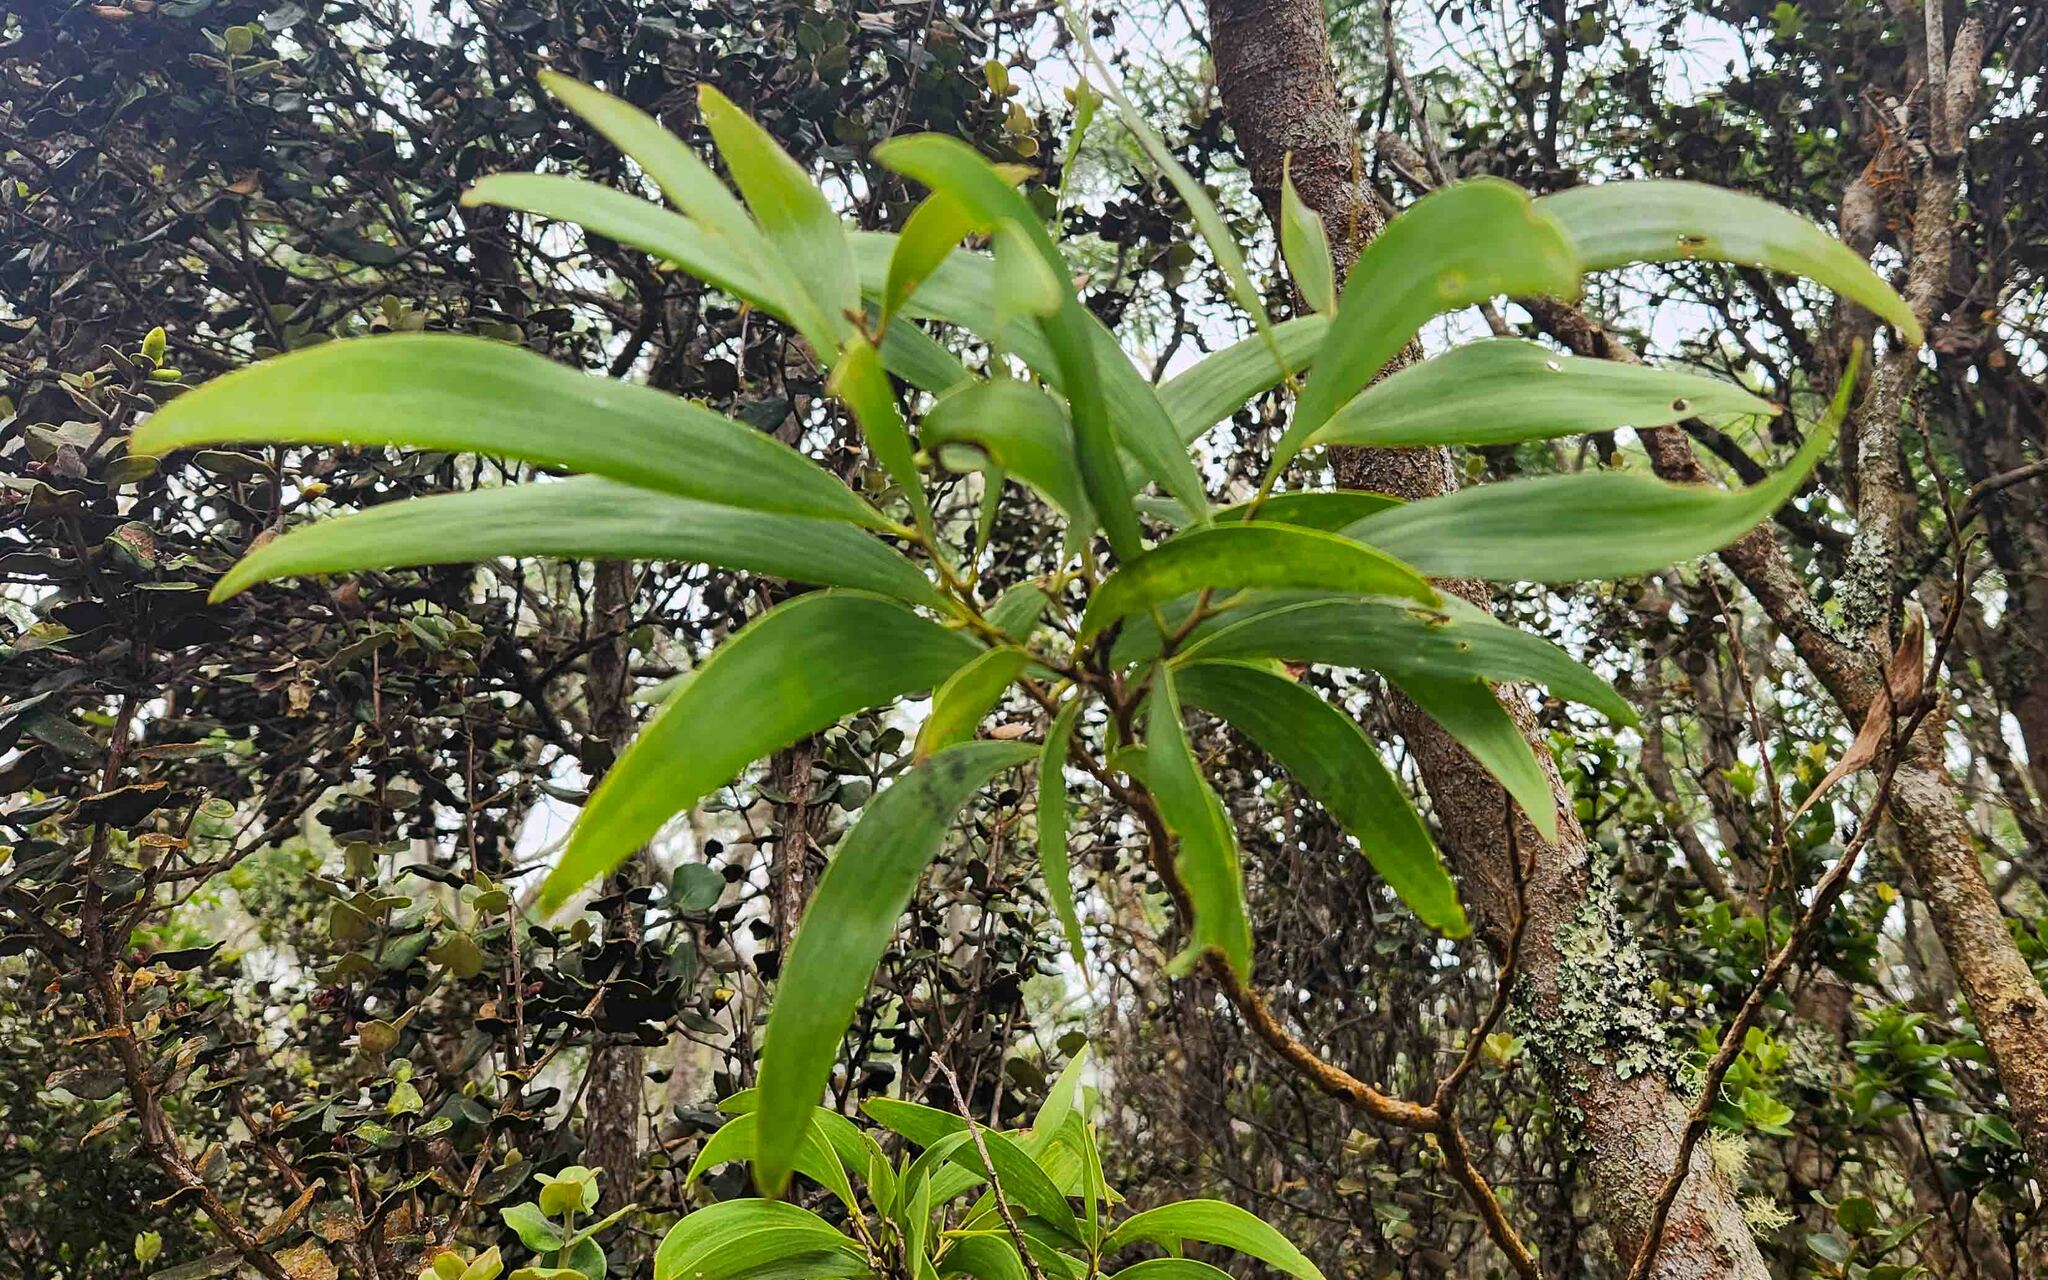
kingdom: Plantae
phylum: Tracheophyta
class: Magnoliopsida
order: Fabales
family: Fabaceae
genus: Acacia
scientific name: Acacia koa
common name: Gray koa
